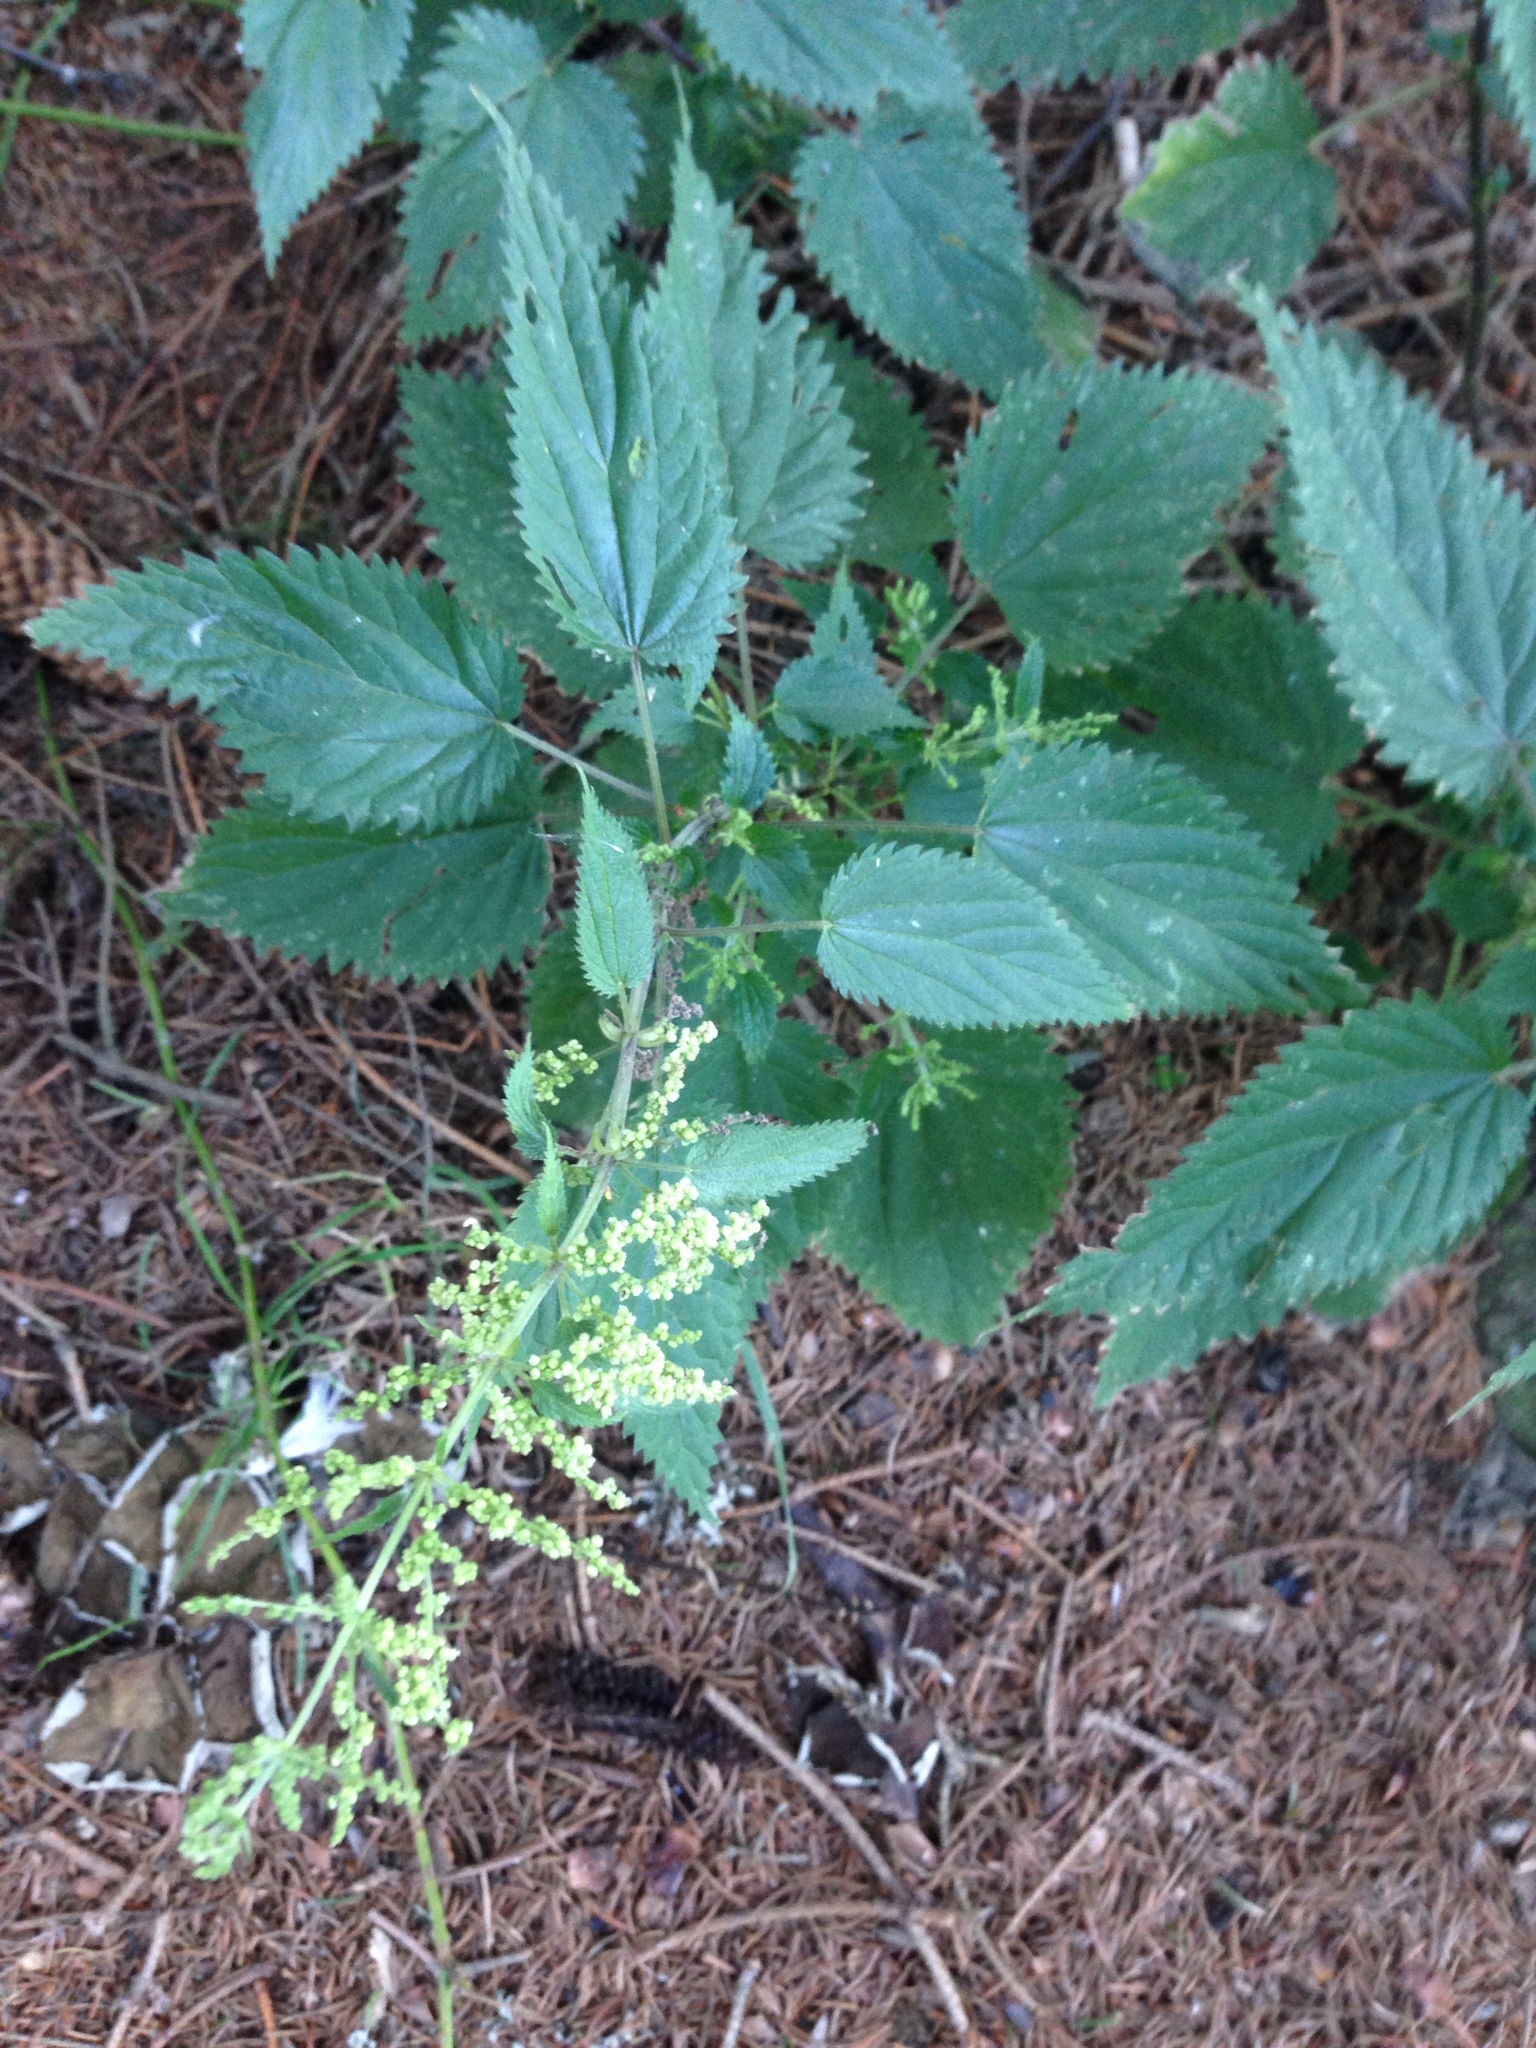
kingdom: Plantae
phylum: Tracheophyta
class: Magnoliopsida
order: Rosales
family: Urticaceae
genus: Urtica
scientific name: Urtica dioica
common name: Common nettle
